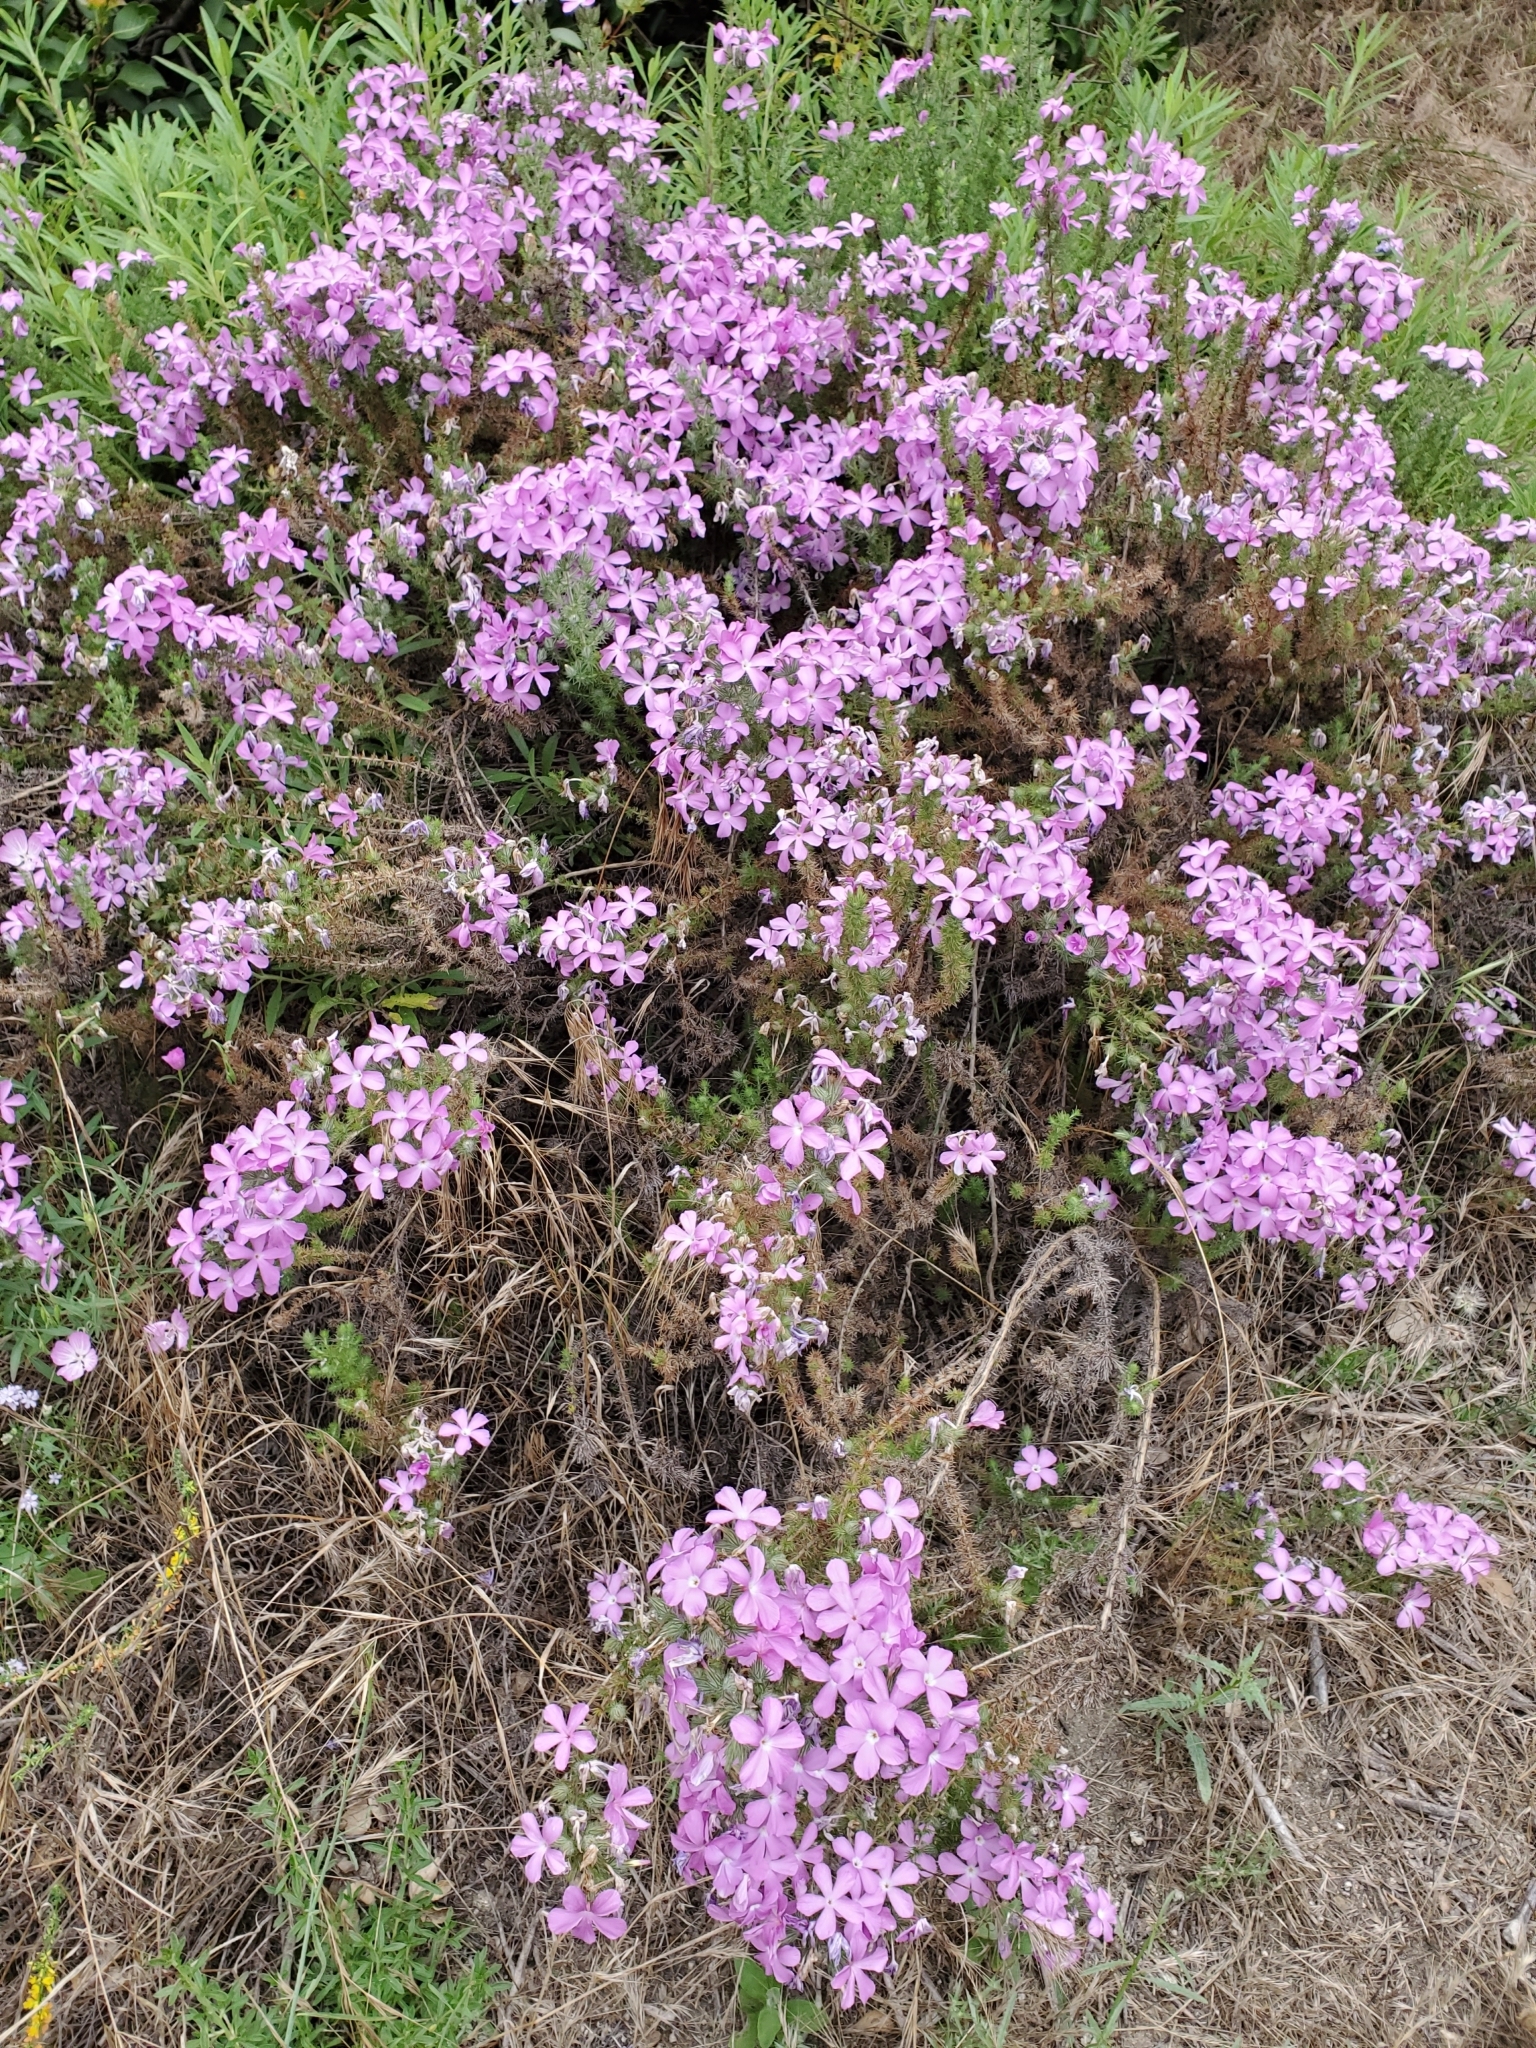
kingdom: Plantae
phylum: Tracheophyta
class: Magnoliopsida
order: Ericales
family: Polemoniaceae
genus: Linanthus
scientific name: Linanthus californicus
